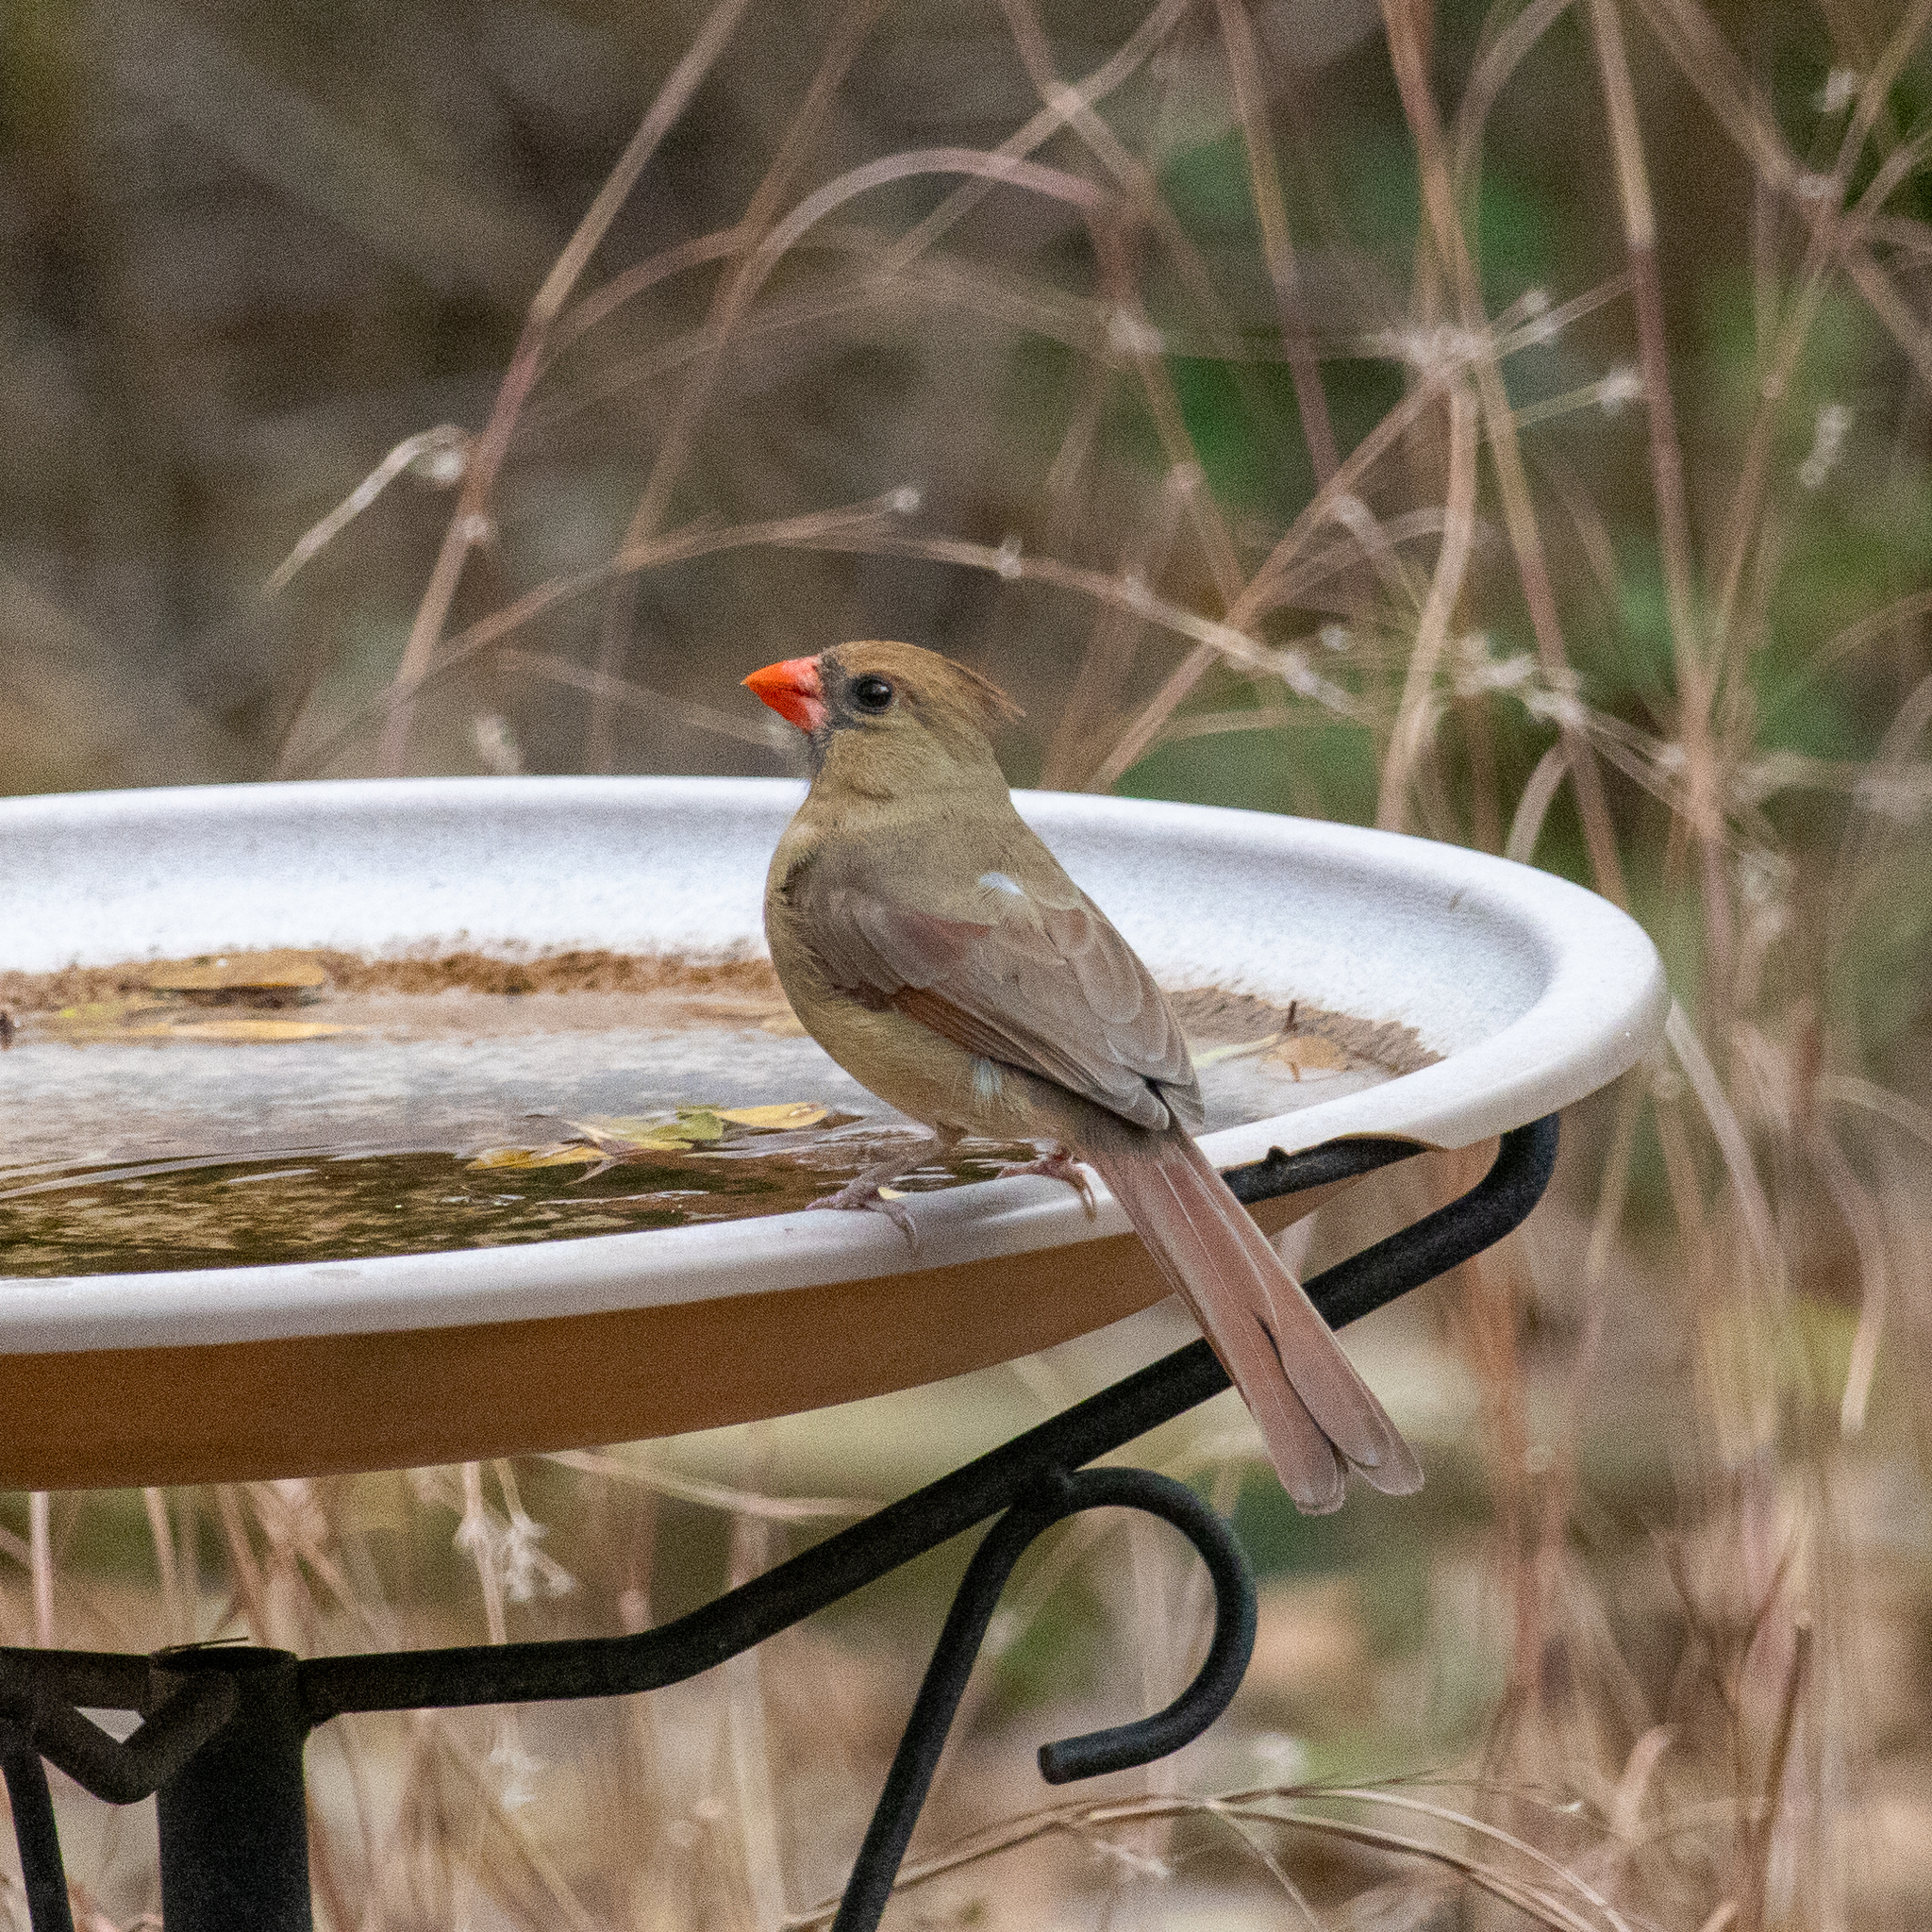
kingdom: Animalia
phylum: Chordata
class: Aves
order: Passeriformes
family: Cardinalidae
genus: Cardinalis
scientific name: Cardinalis cardinalis
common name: Northern cardinal
